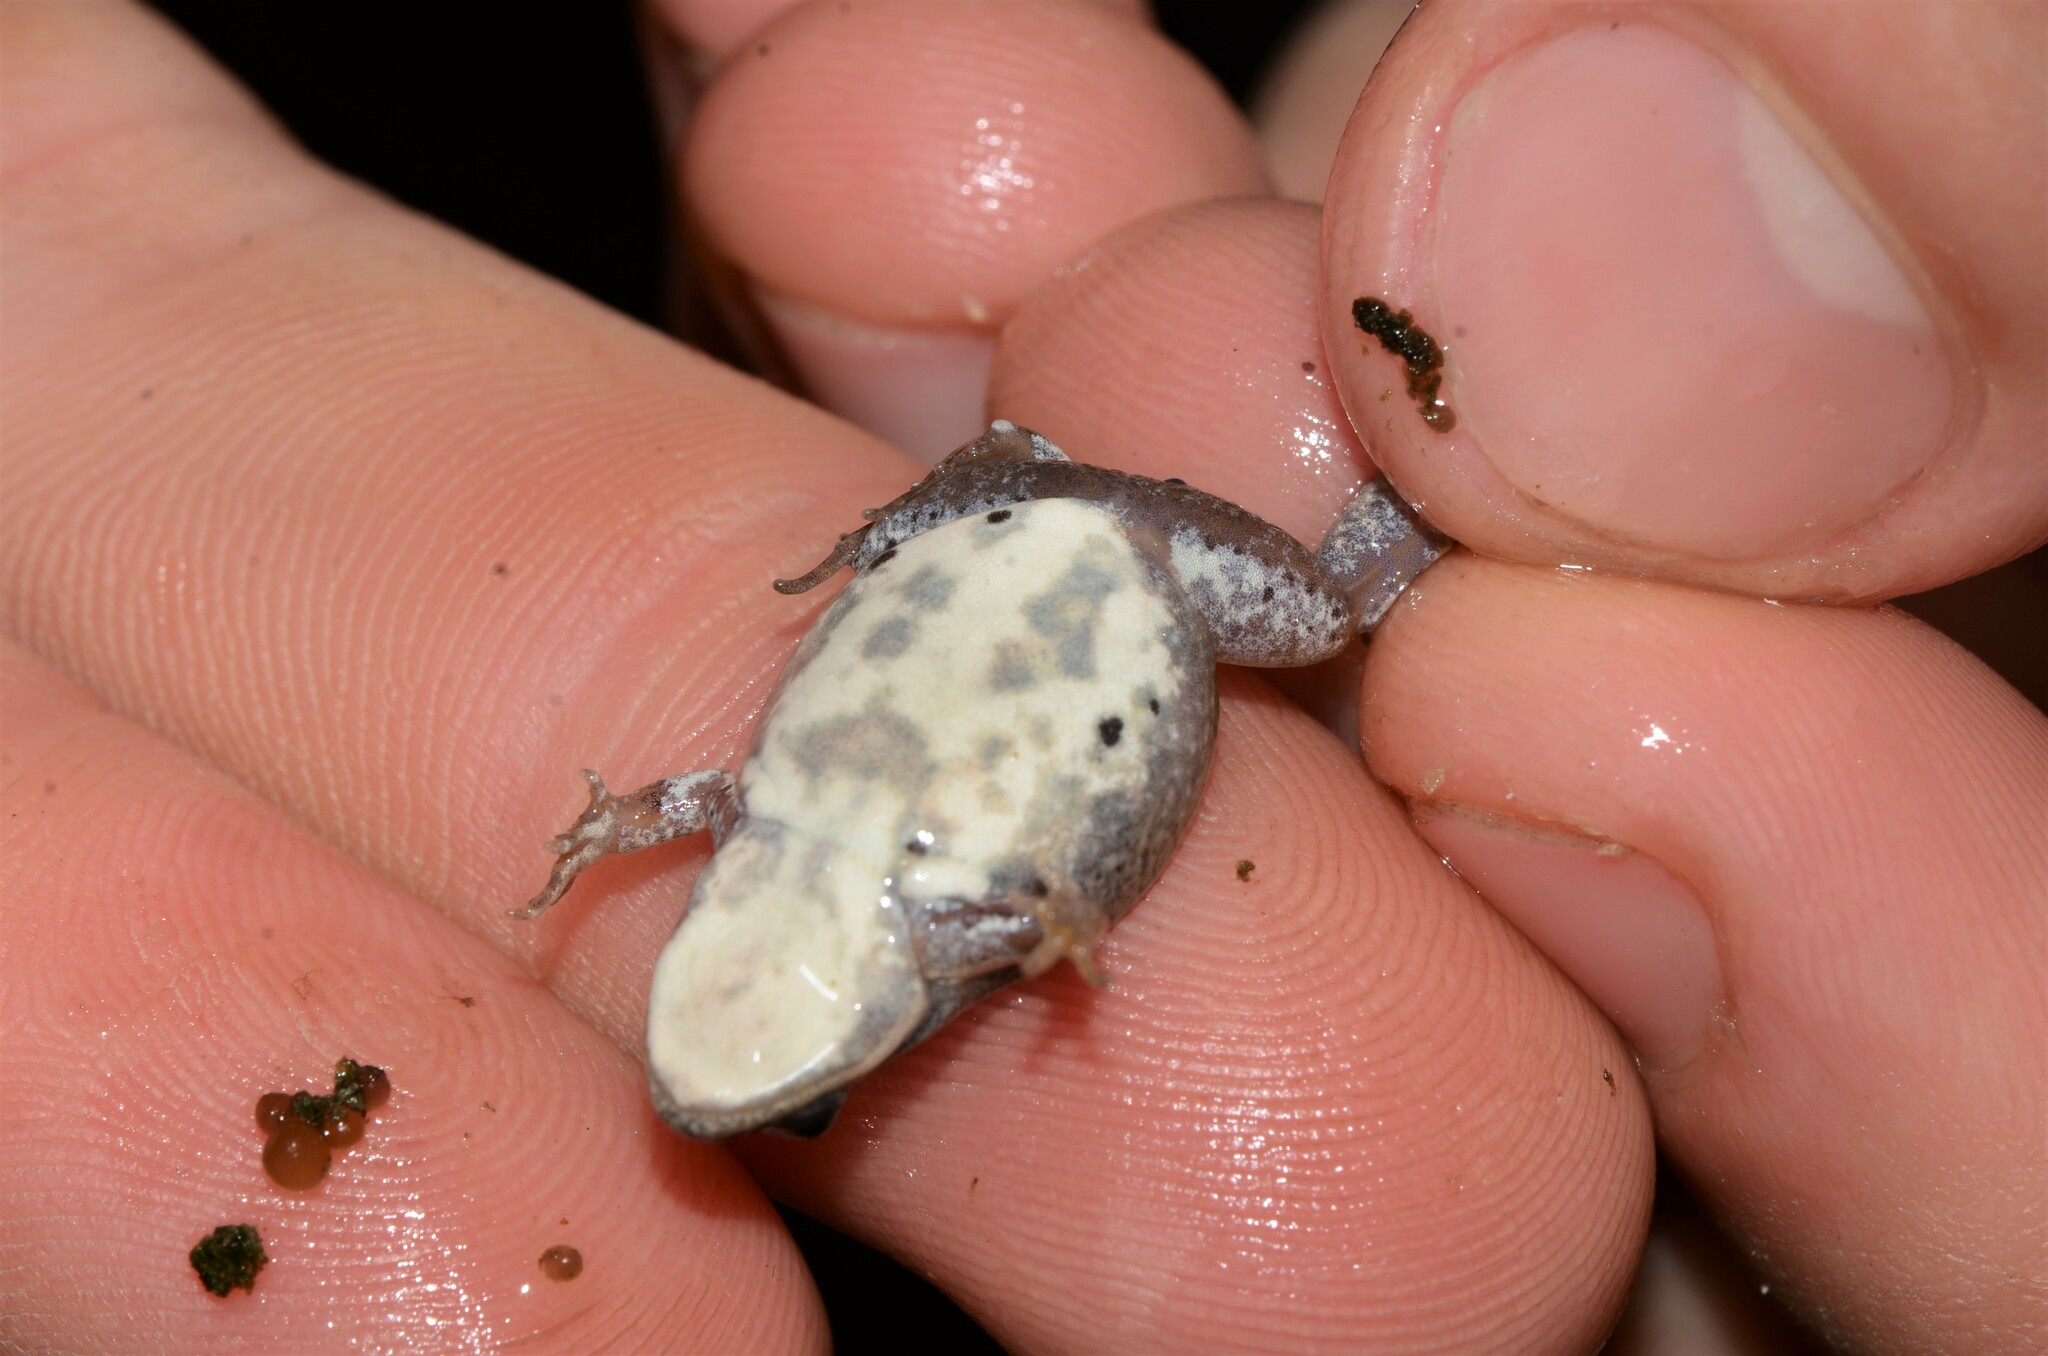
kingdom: Animalia
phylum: Chordata
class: Amphibia
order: Anura
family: Pyxicephalidae
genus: Cacosternum
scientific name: Cacosternum aggestum
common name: Klipheuwel dainty frog
